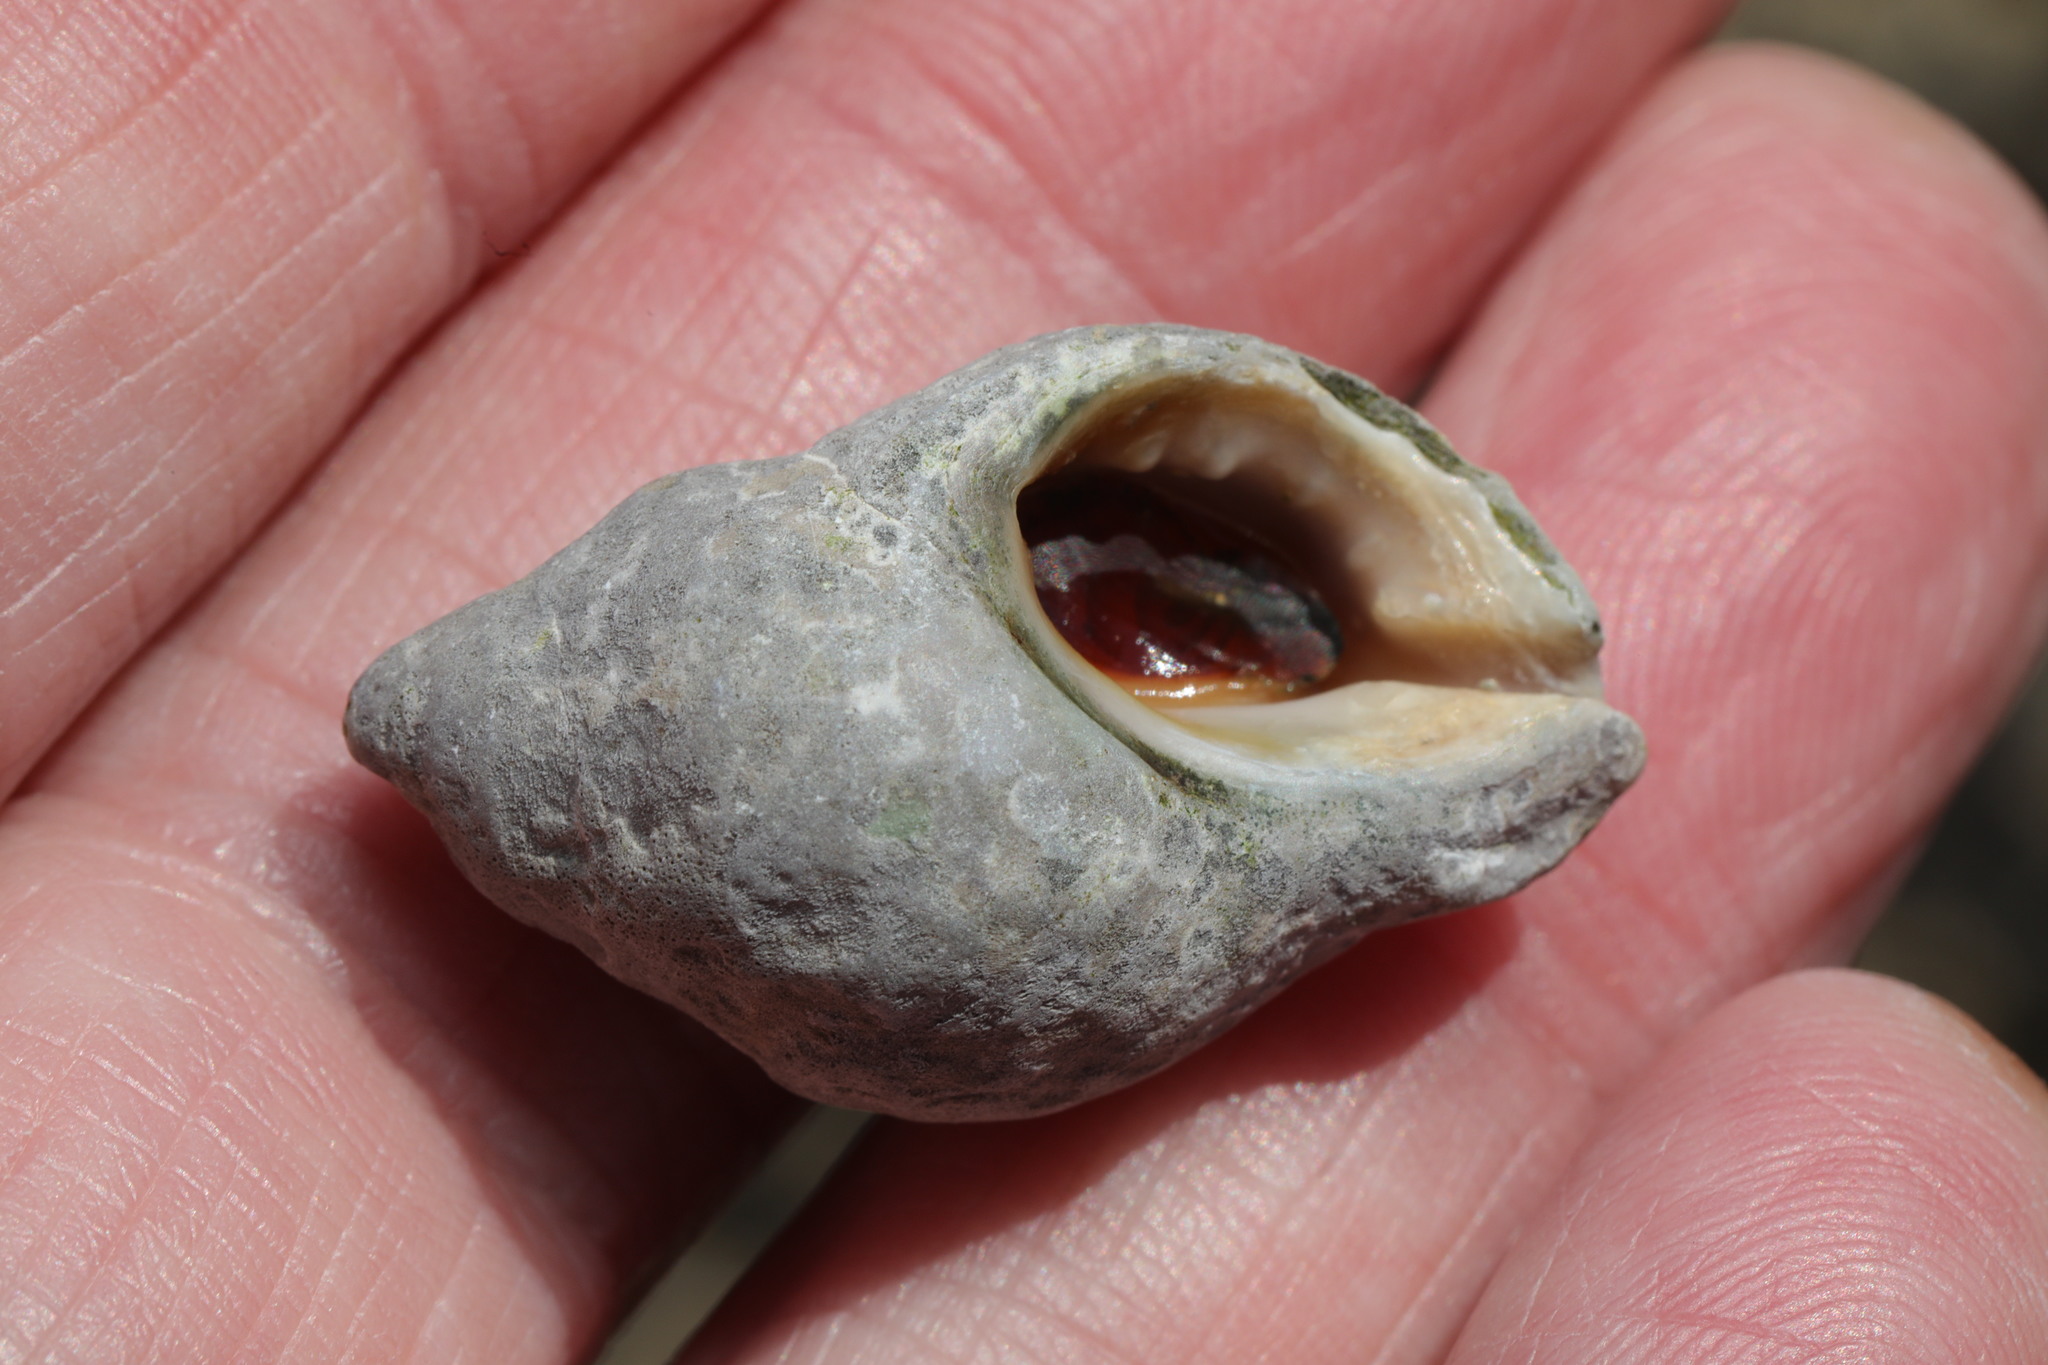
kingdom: Animalia
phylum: Mollusca
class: Gastropoda
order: Neogastropoda
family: Muricidae
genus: Nucella
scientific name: Nucella lapillus
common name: Dog whelk
